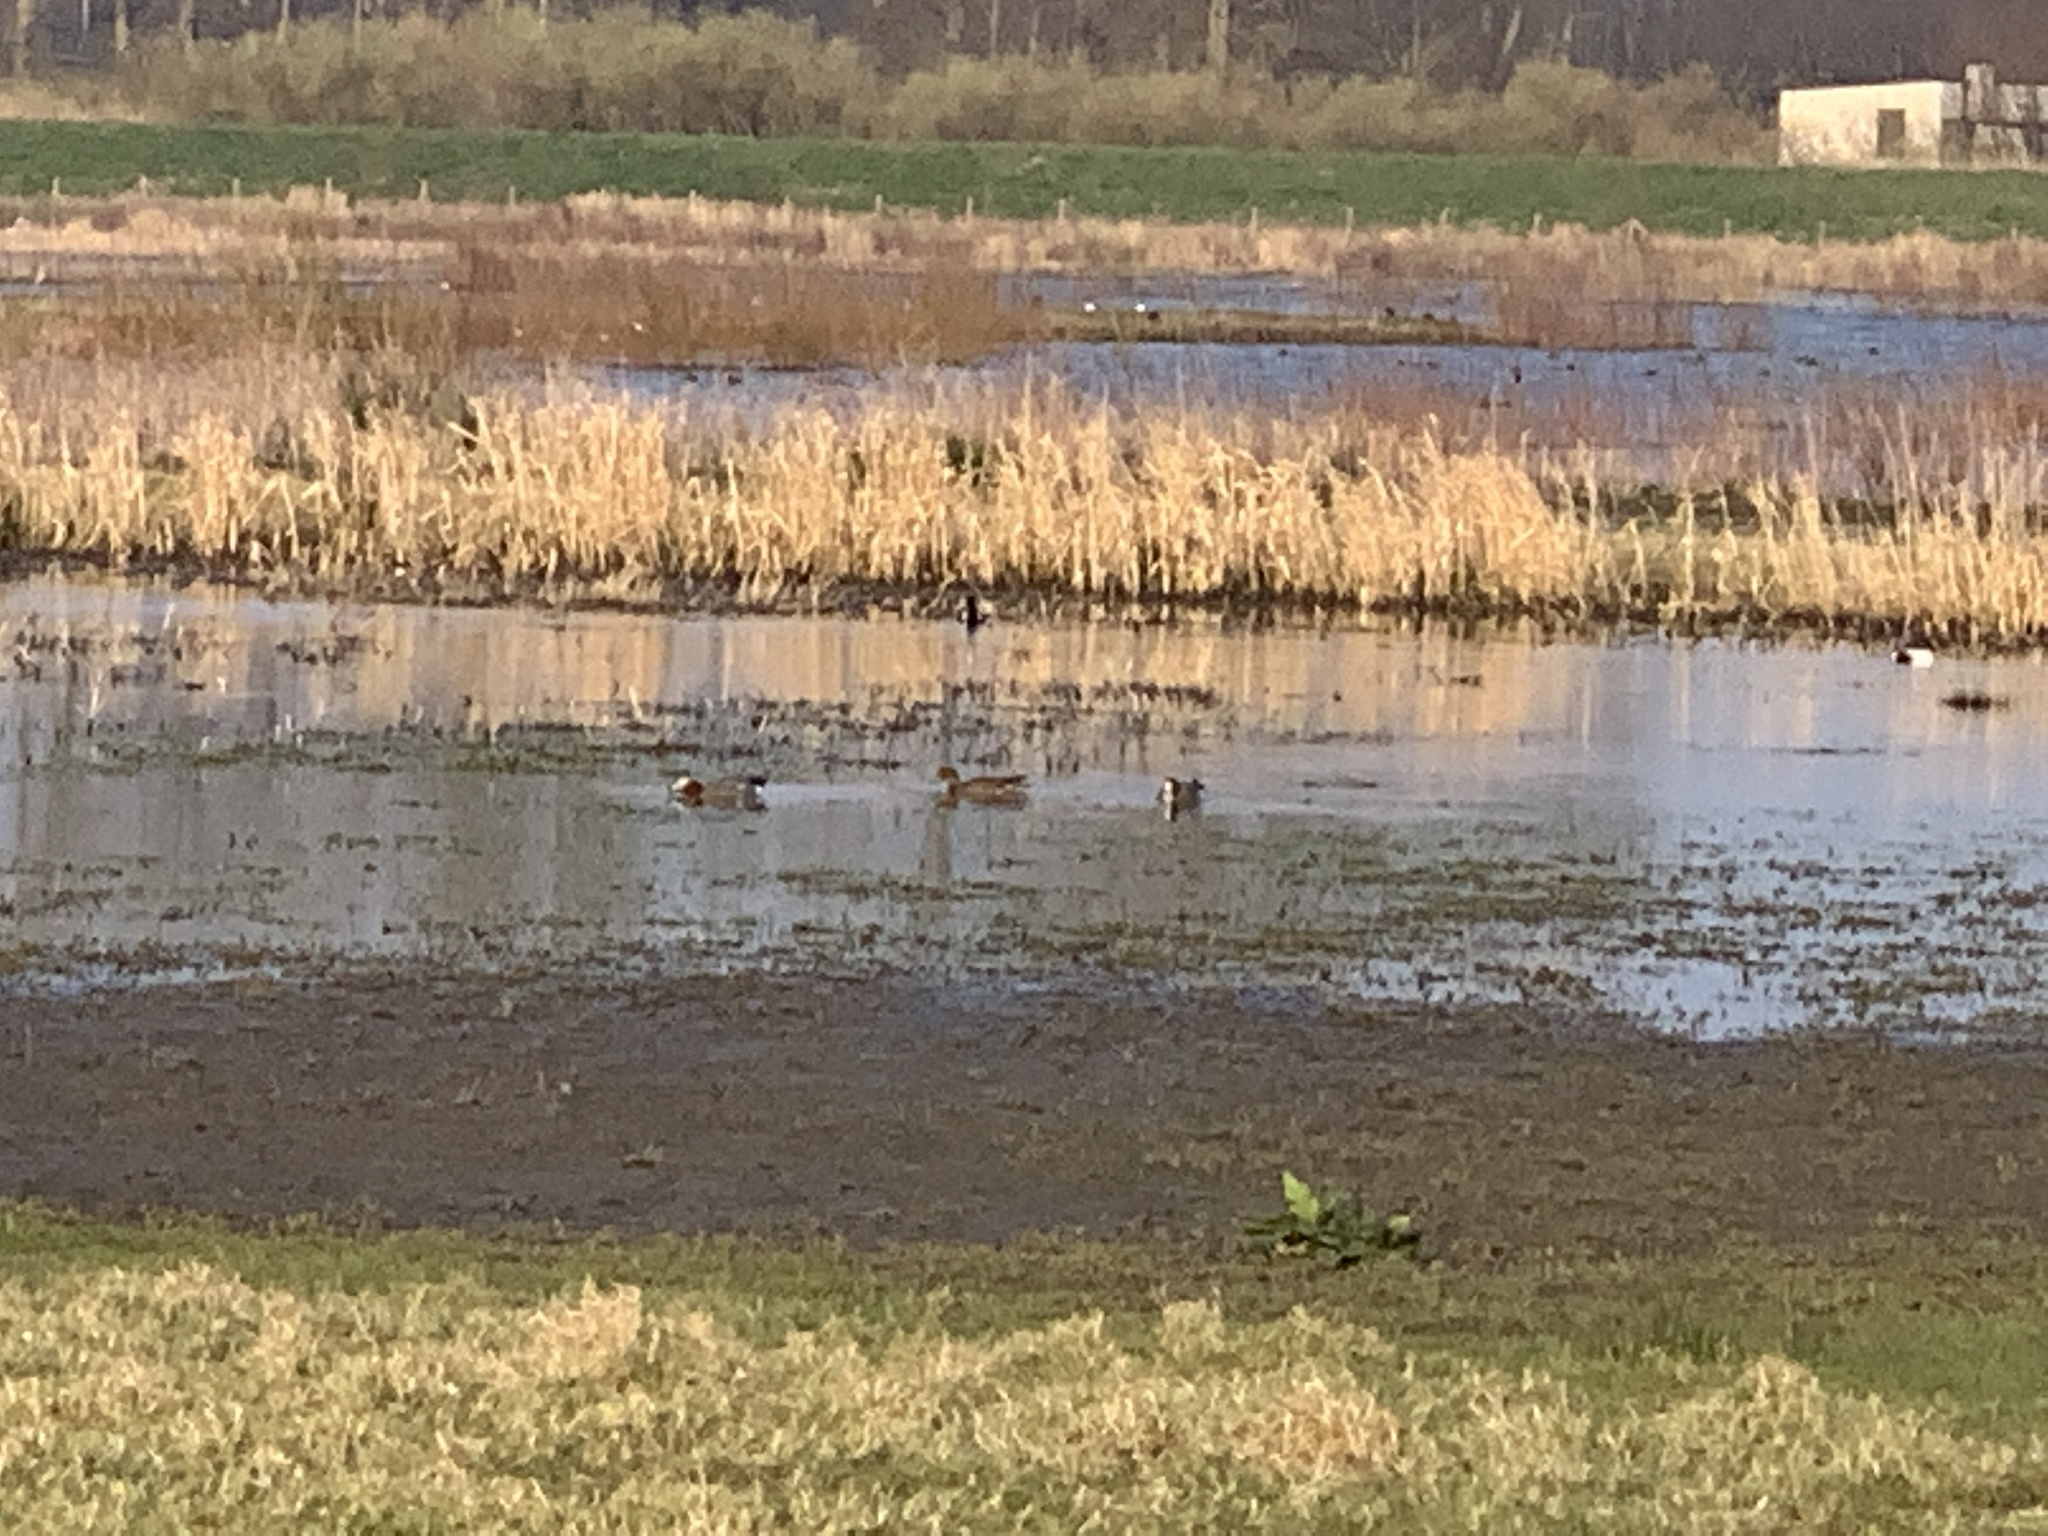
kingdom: Animalia
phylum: Chordata
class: Aves
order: Anseriformes
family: Anatidae
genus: Mareca
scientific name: Mareca penelope
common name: Eurasian wigeon
